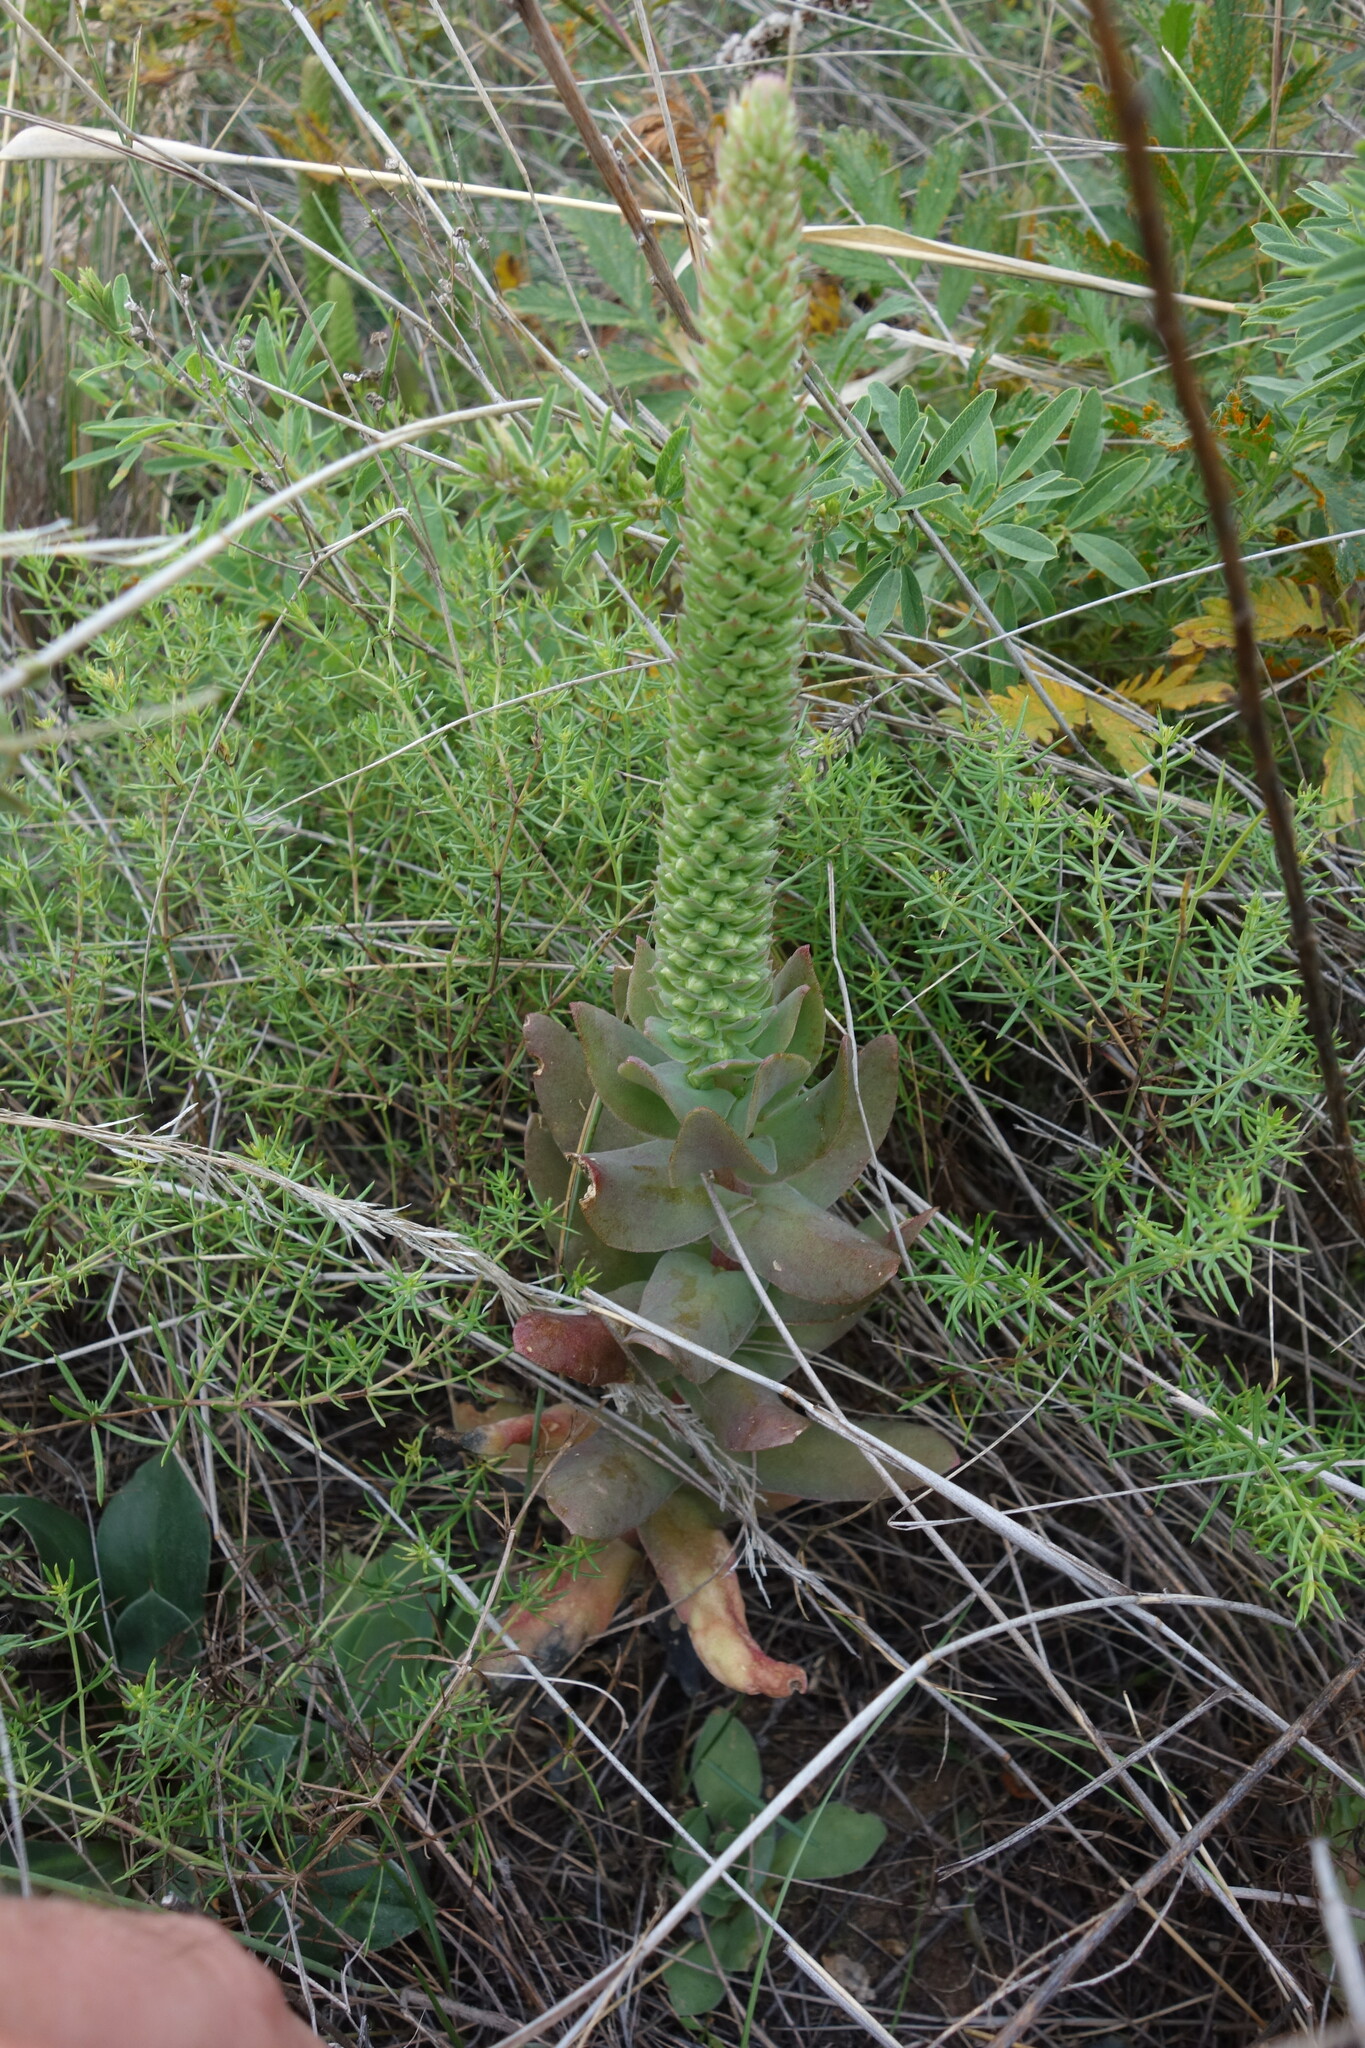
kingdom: Plantae
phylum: Tracheophyta
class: Magnoliopsida
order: Saxifragales
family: Crassulaceae
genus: Orostachys
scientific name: Orostachys malacophylla
